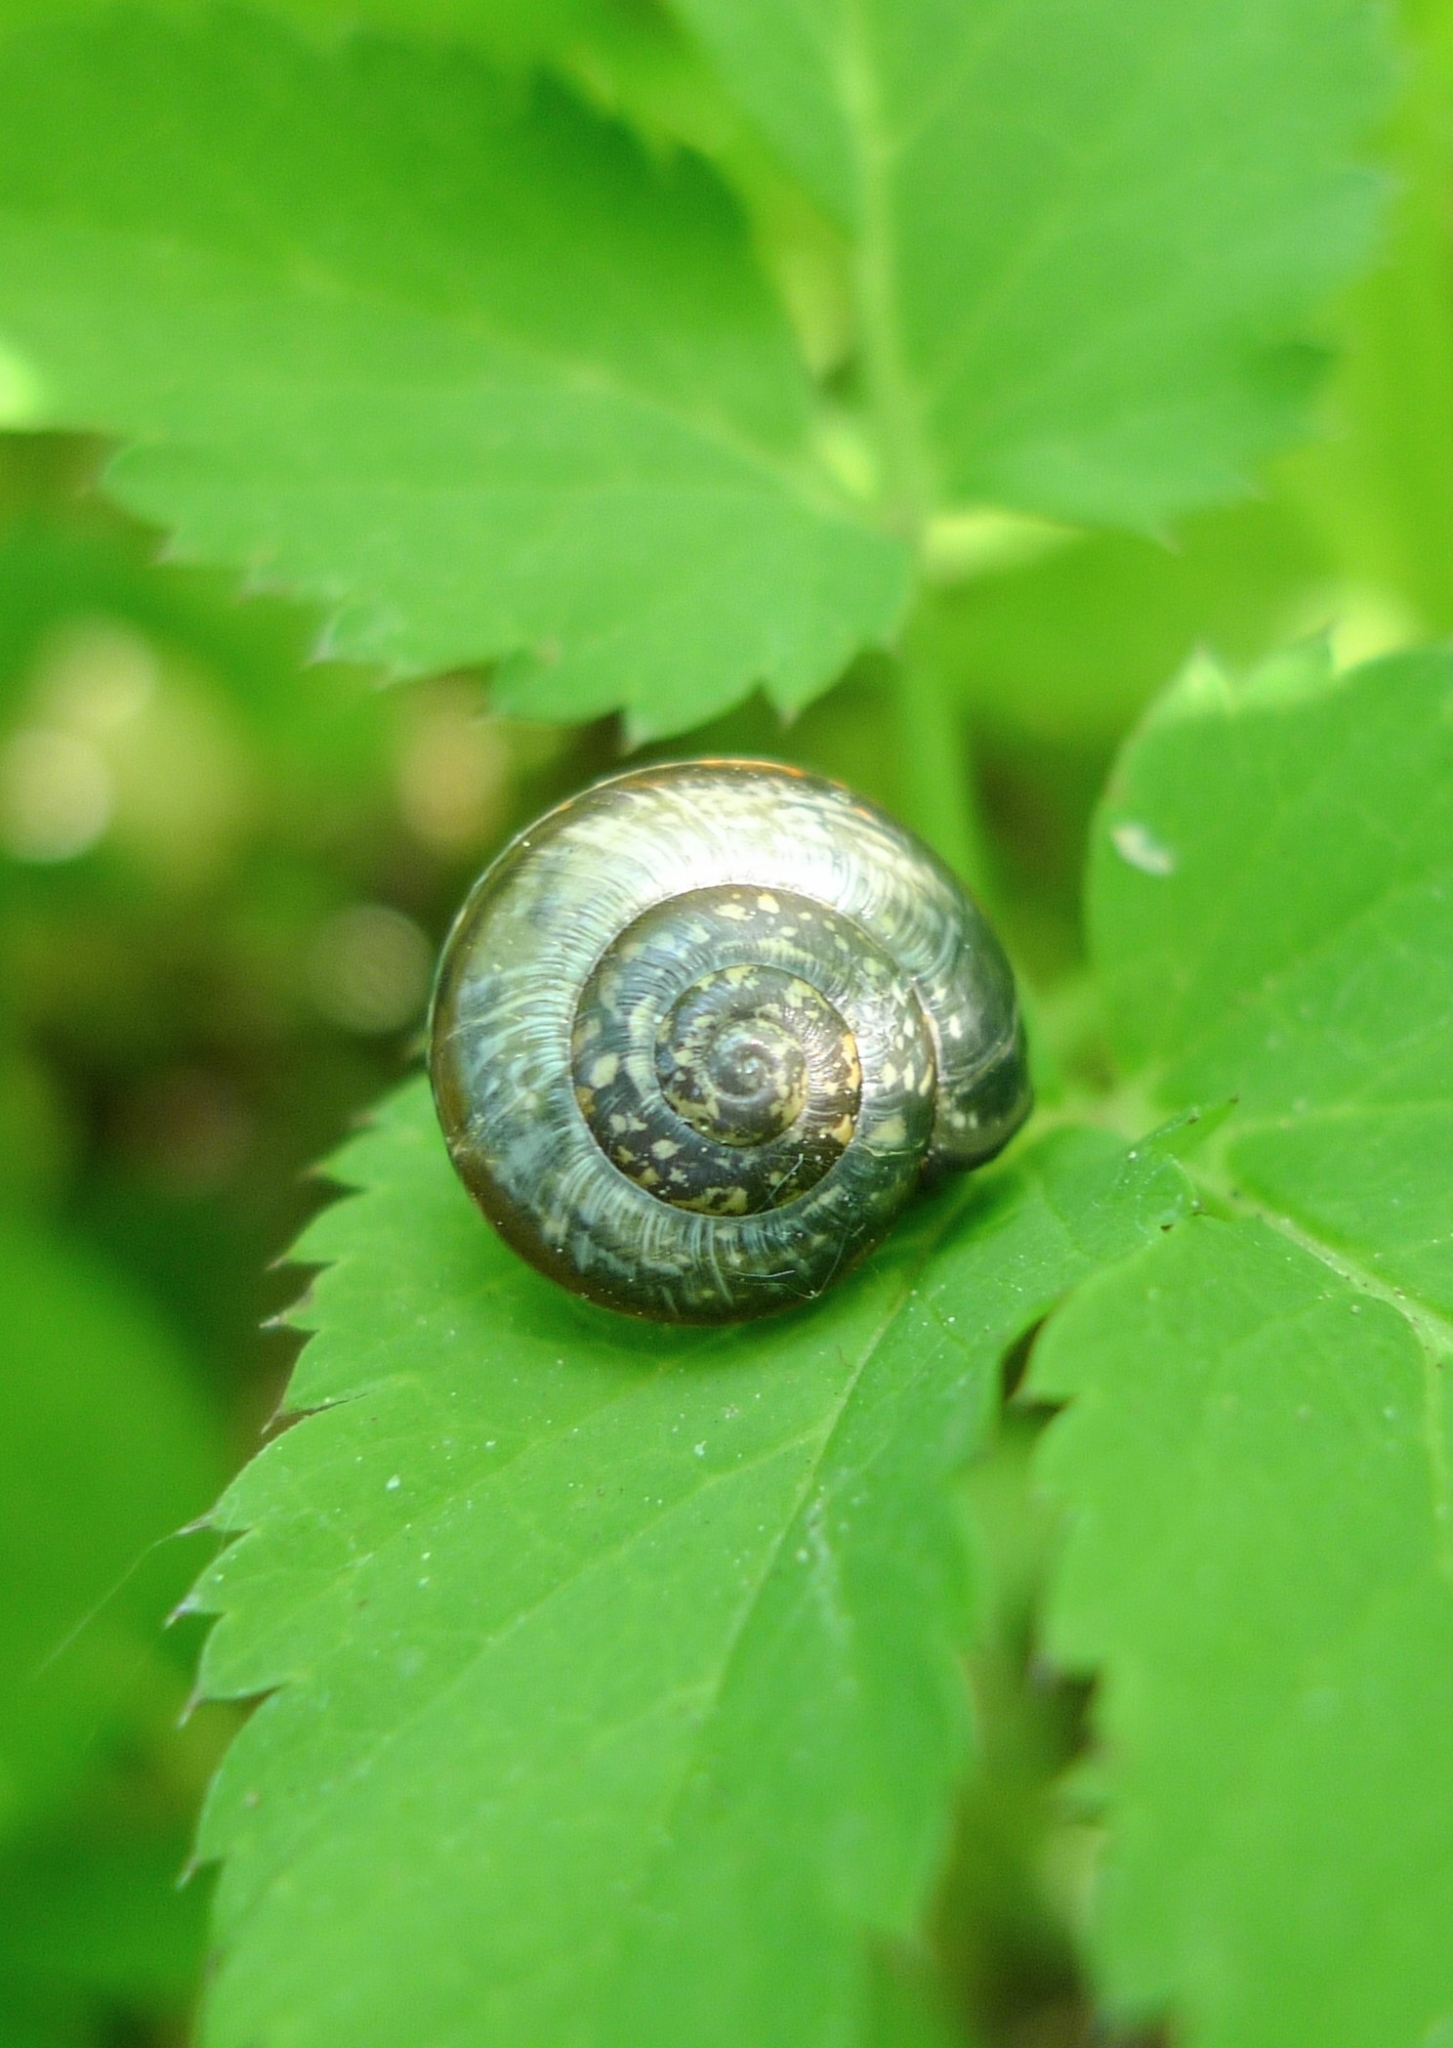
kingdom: Animalia
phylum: Mollusca
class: Gastropoda
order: Stylommatophora
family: Helicidae
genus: Arianta
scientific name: Arianta arbustorum
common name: Copse snail
